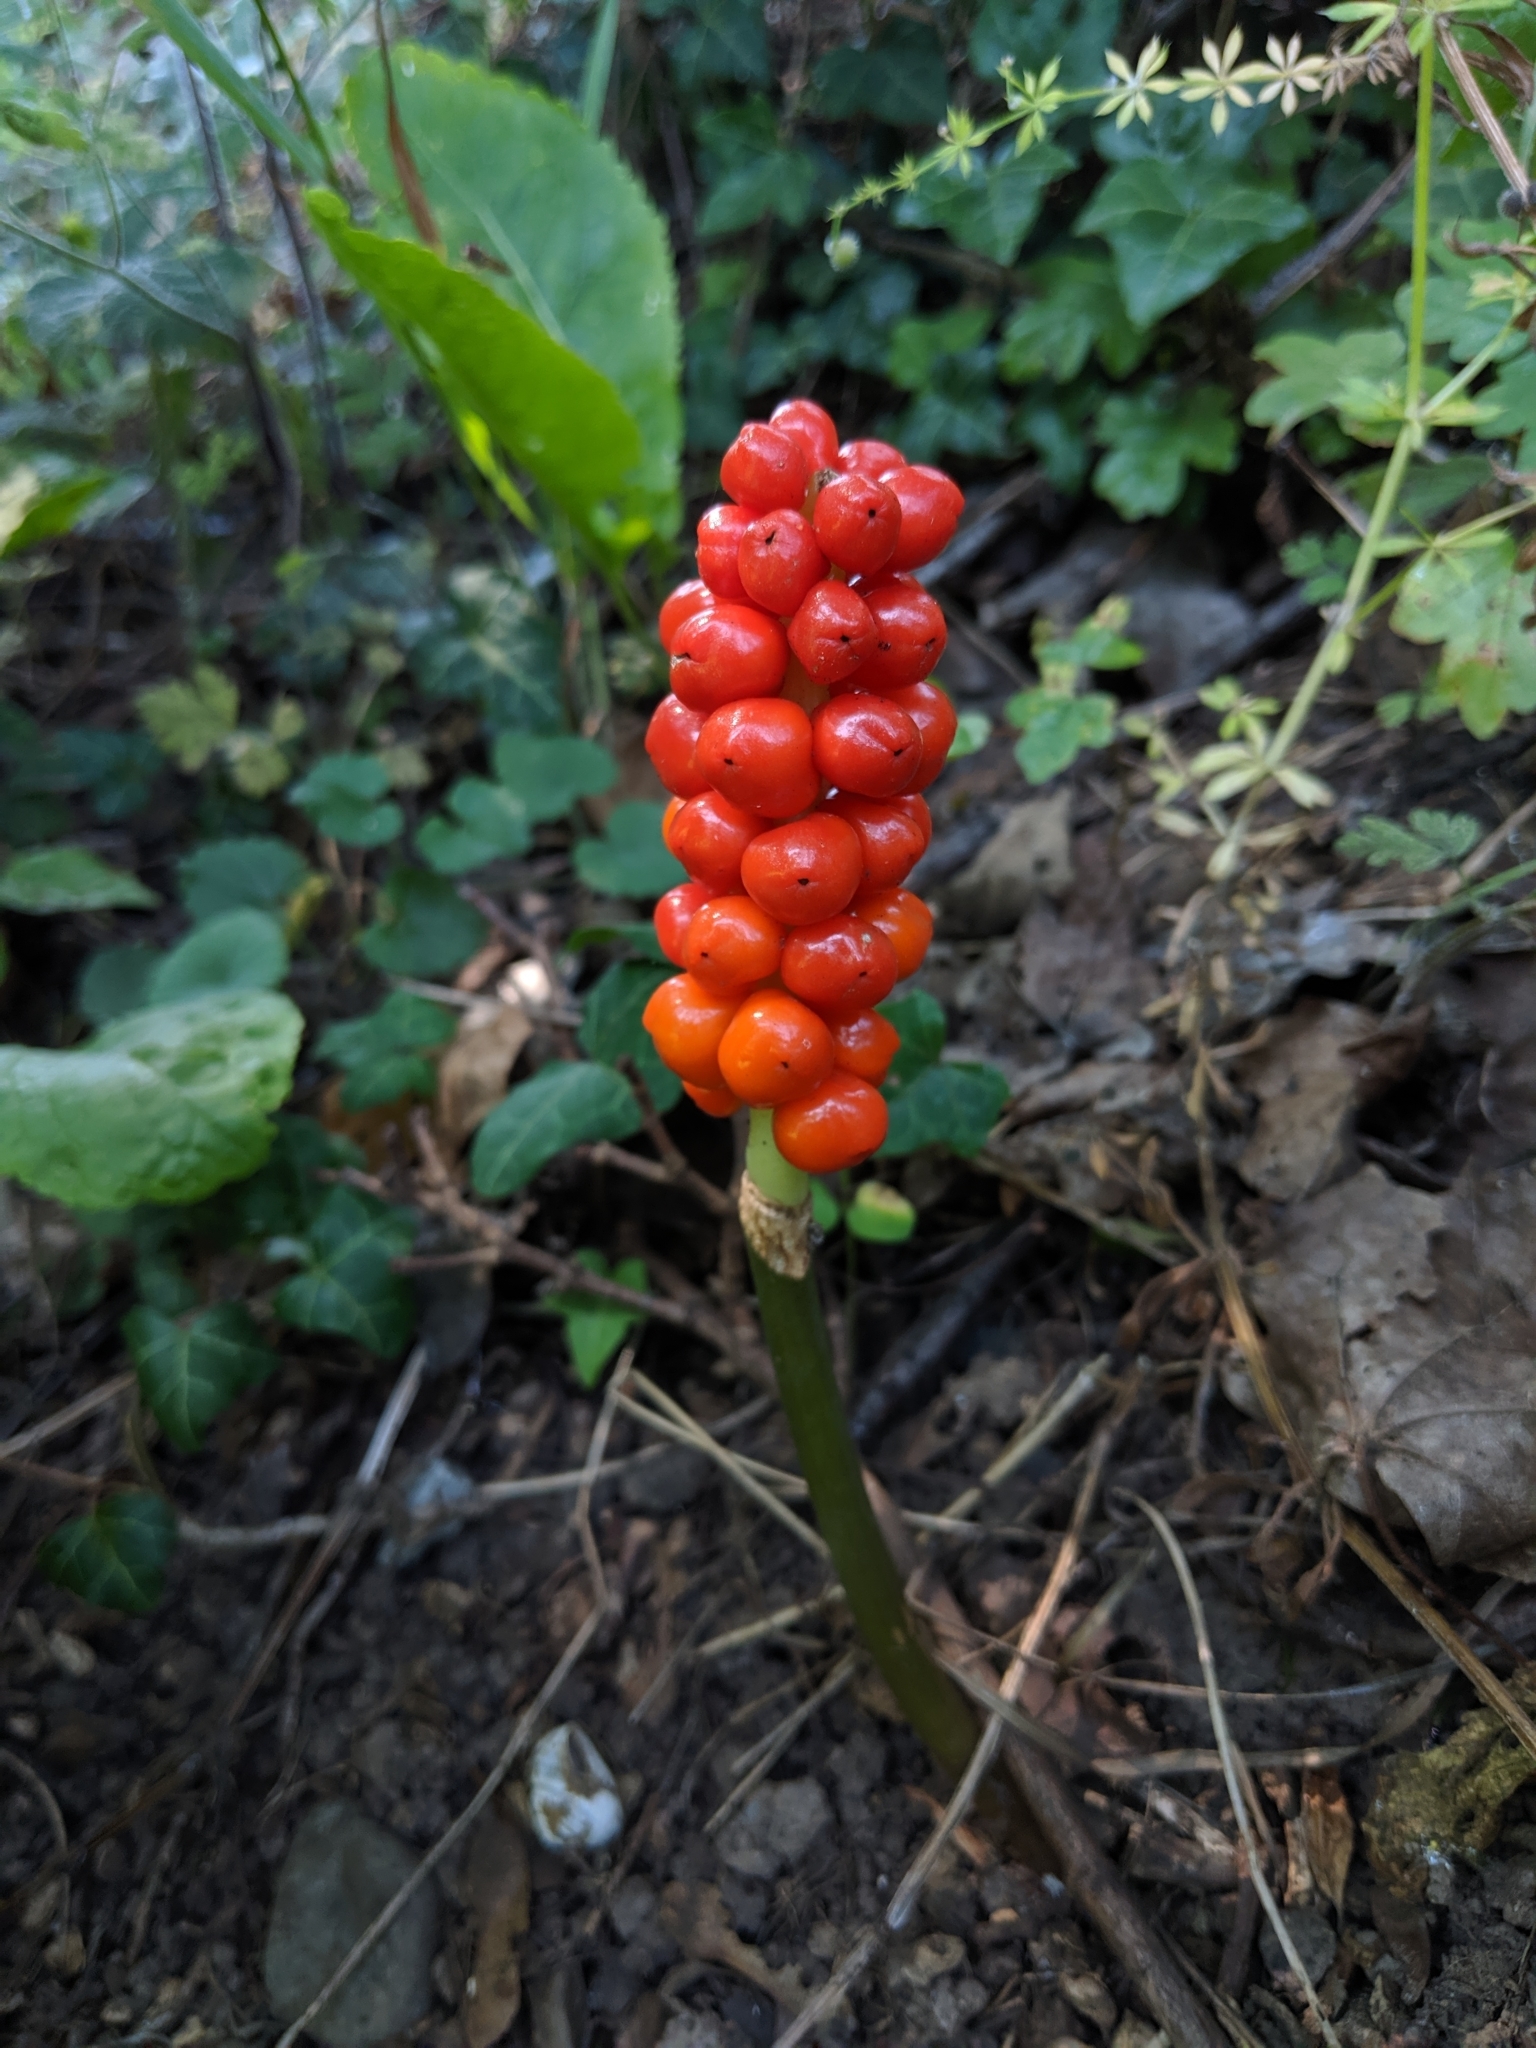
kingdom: Plantae
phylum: Tracheophyta
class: Liliopsida
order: Alismatales
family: Araceae
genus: Arum
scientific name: Arum maculatum
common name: Lords-and-ladies
